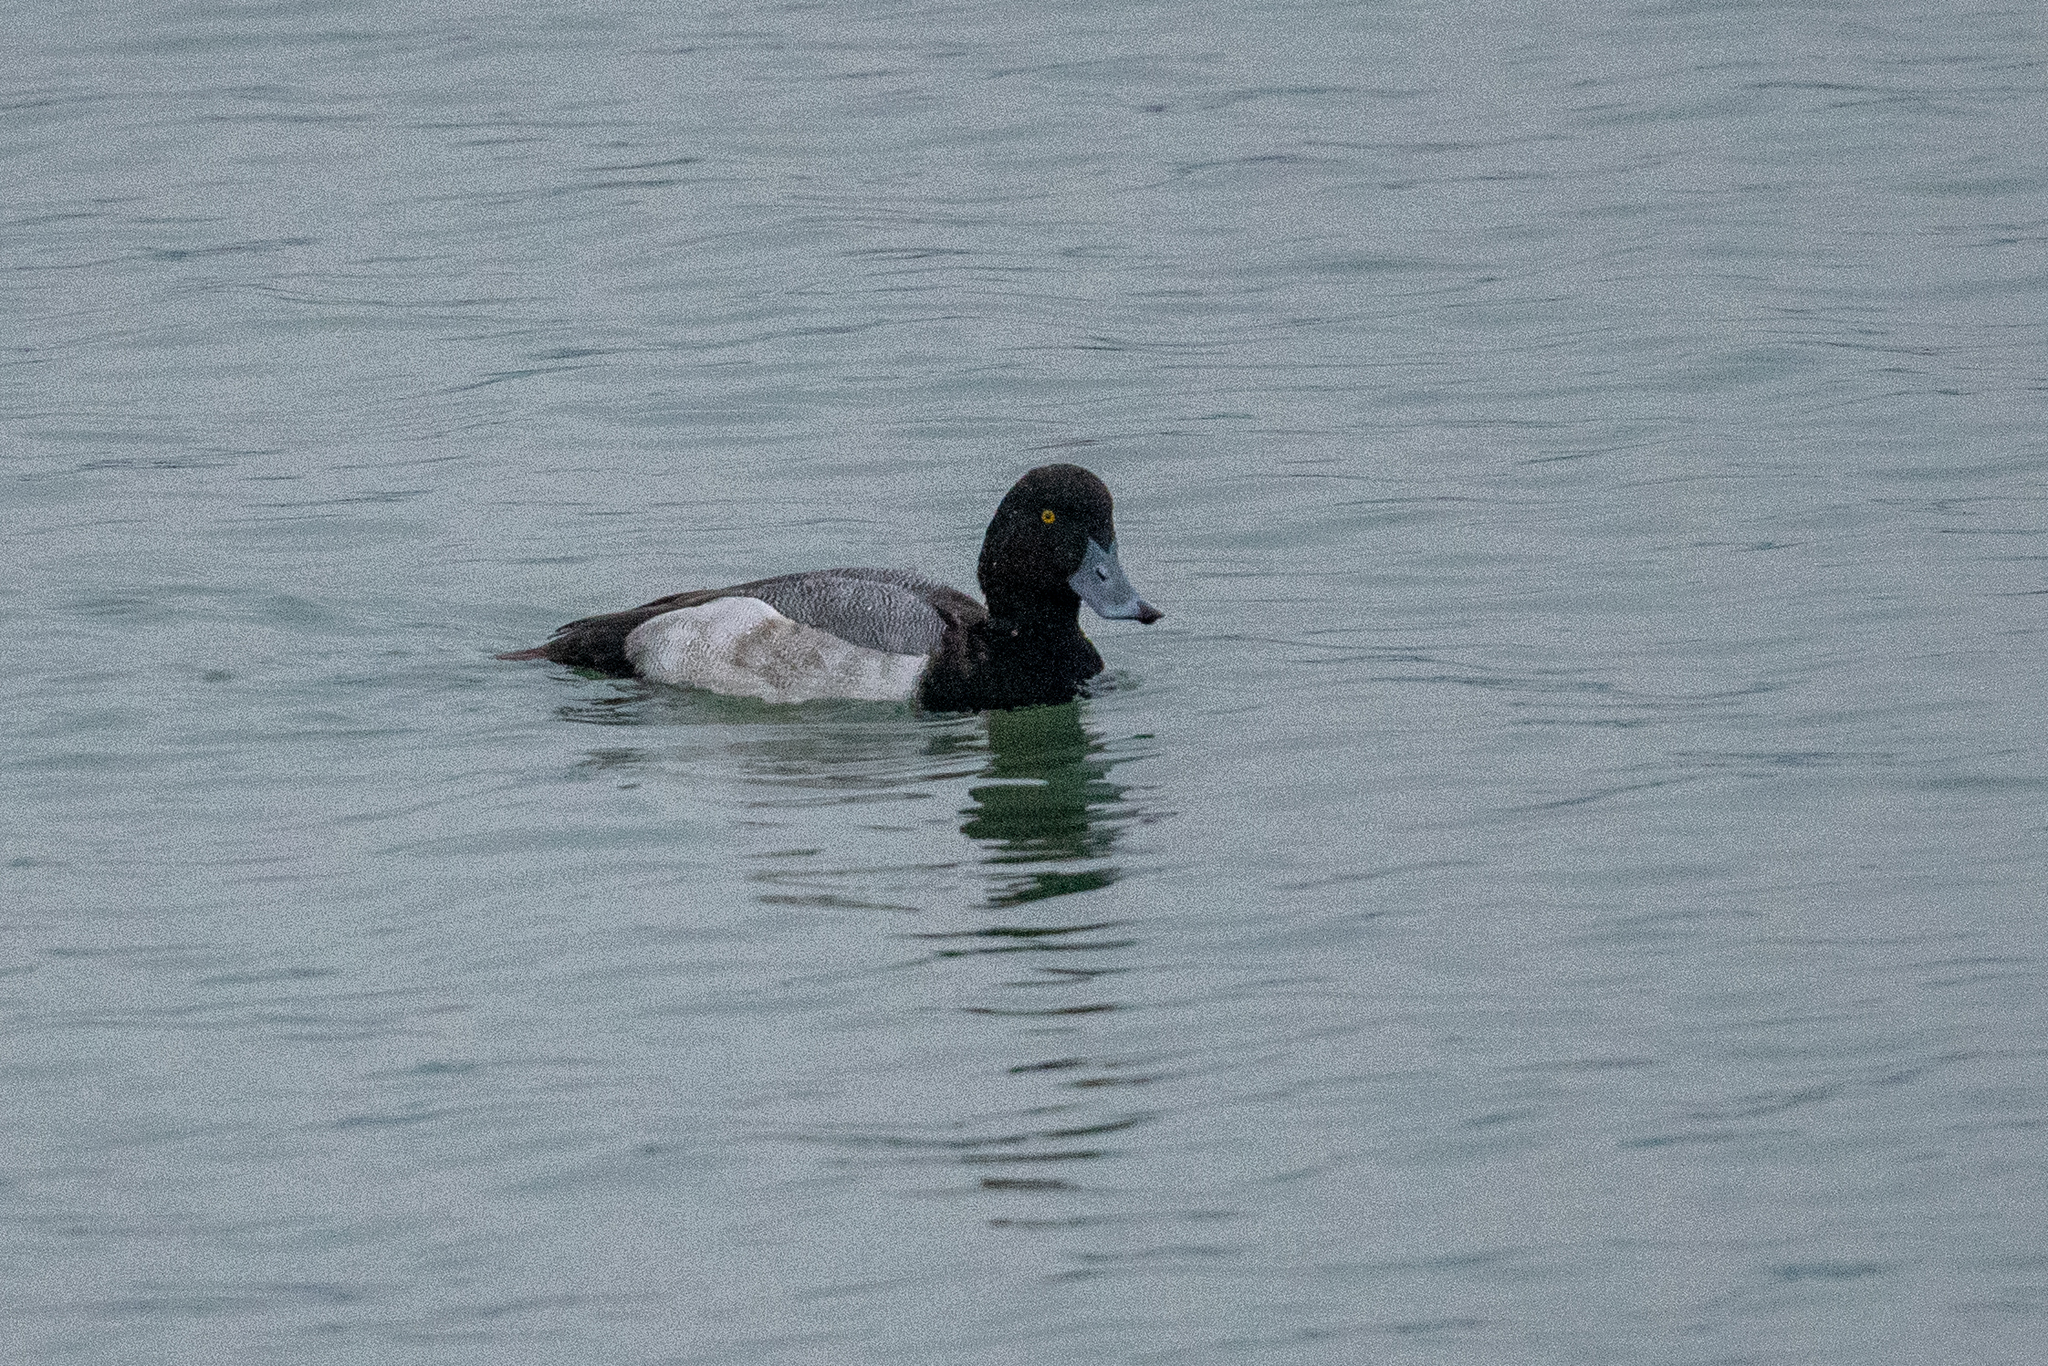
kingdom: Animalia
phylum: Chordata
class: Aves
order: Anseriformes
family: Anatidae
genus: Aythya
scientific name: Aythya marila
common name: Greater scaup
